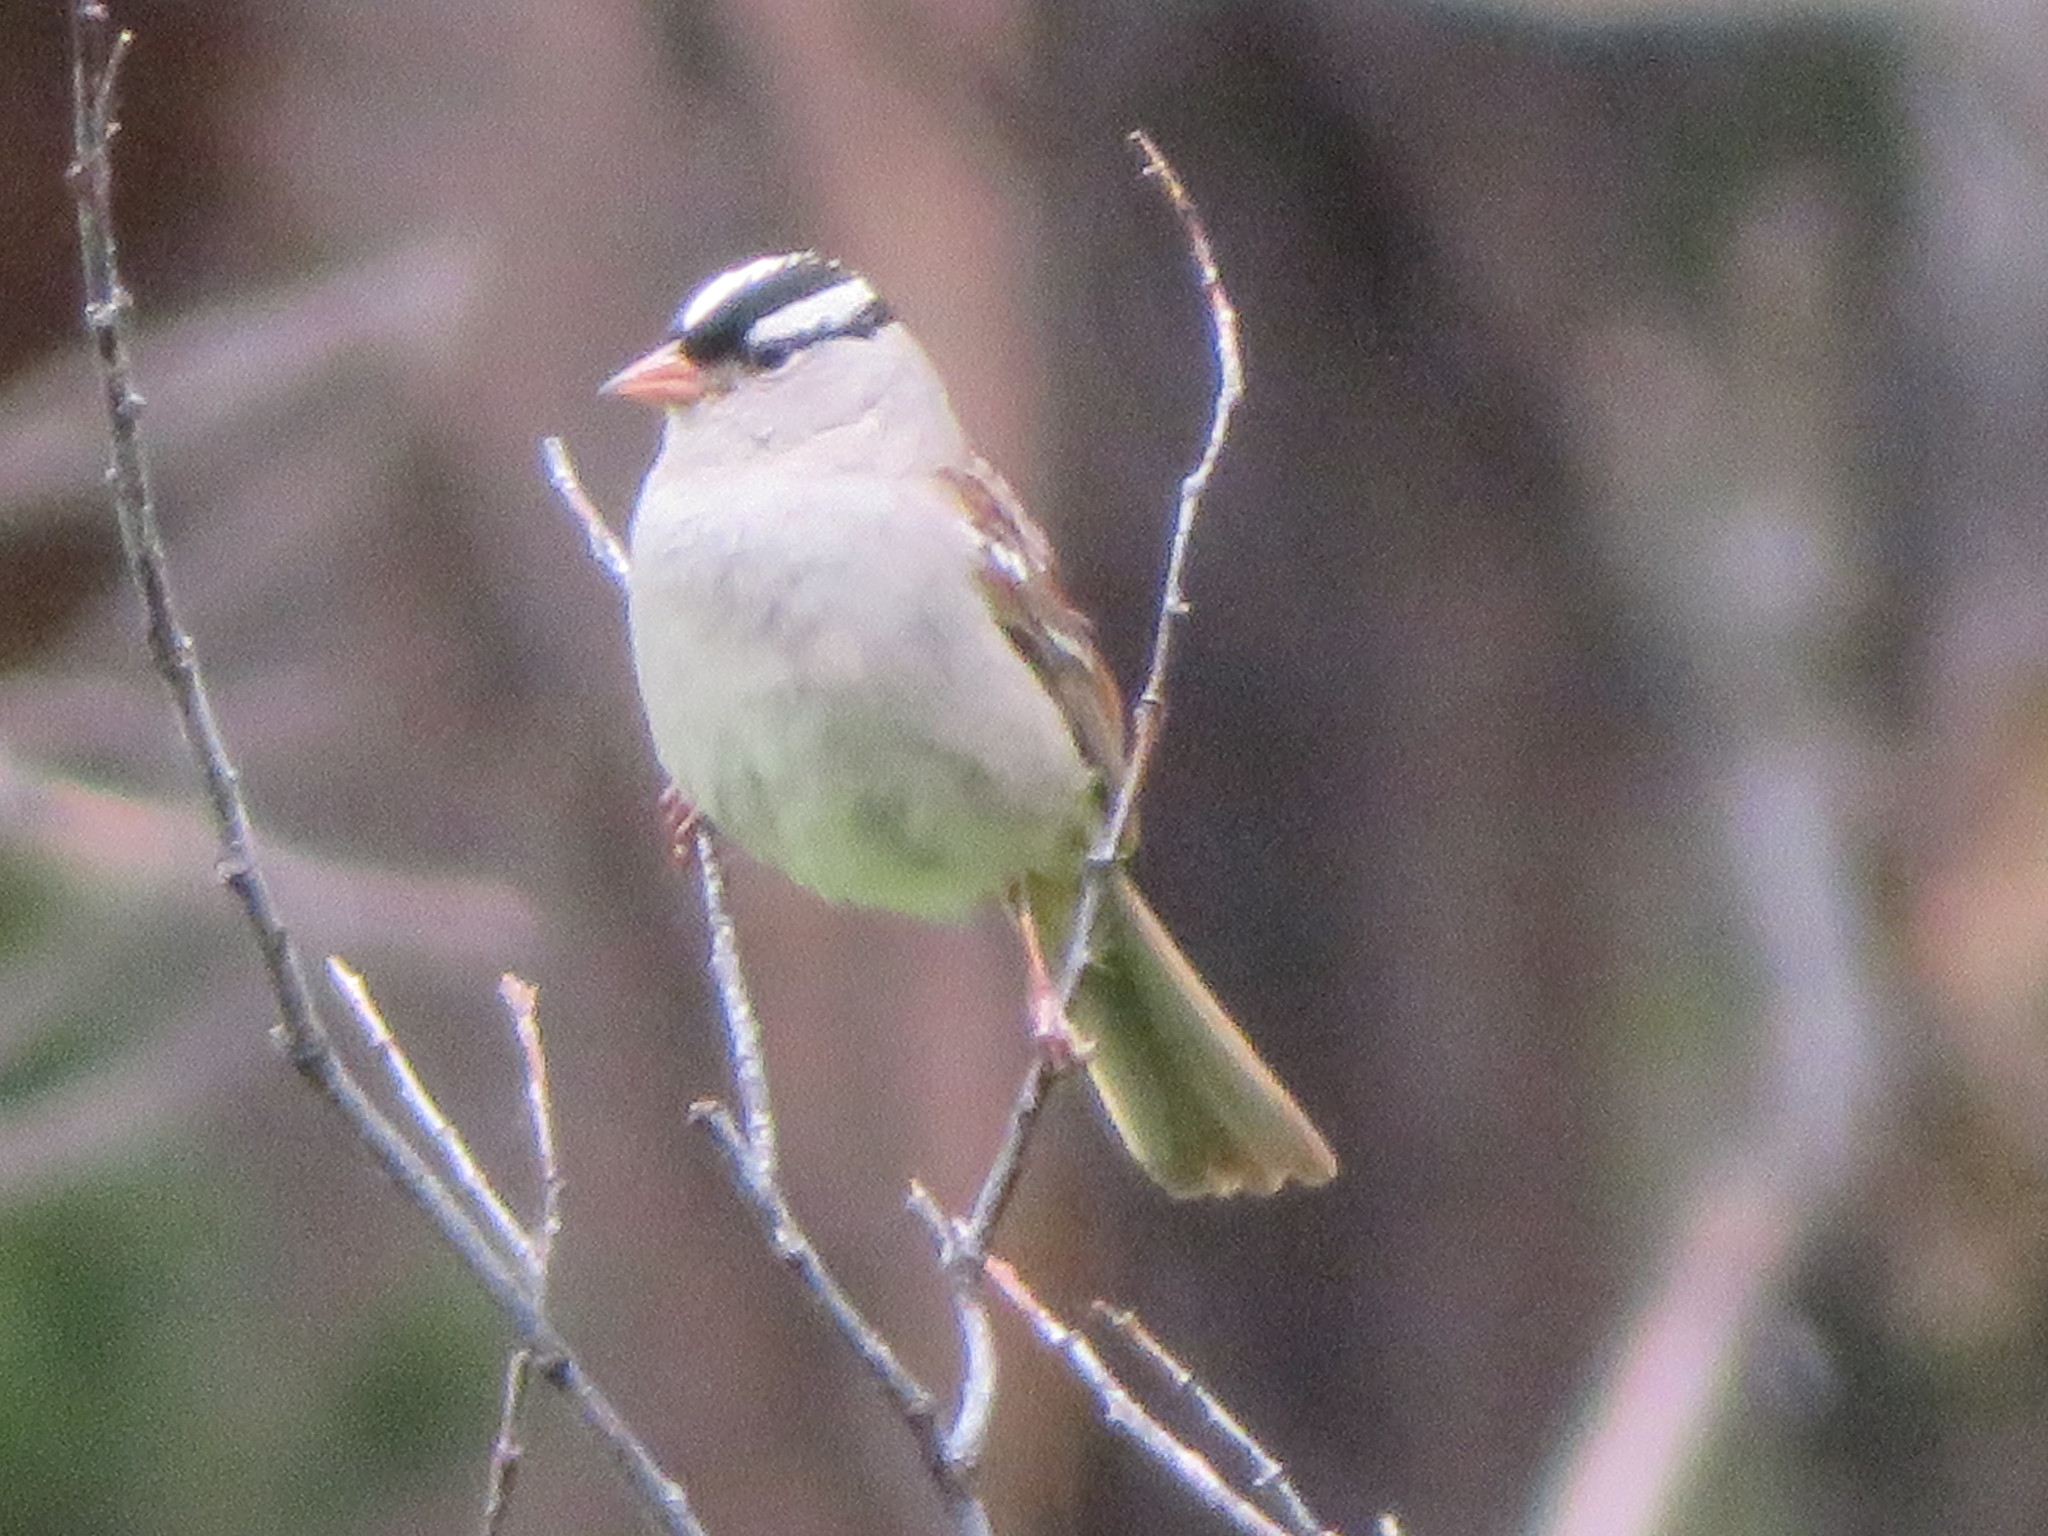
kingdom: Animalia
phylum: Chordata
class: Aves
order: Passeriformes
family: Passerellidae
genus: Zonotrichia
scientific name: Zonotrichia leucophrys
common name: White-crowned sparrow
